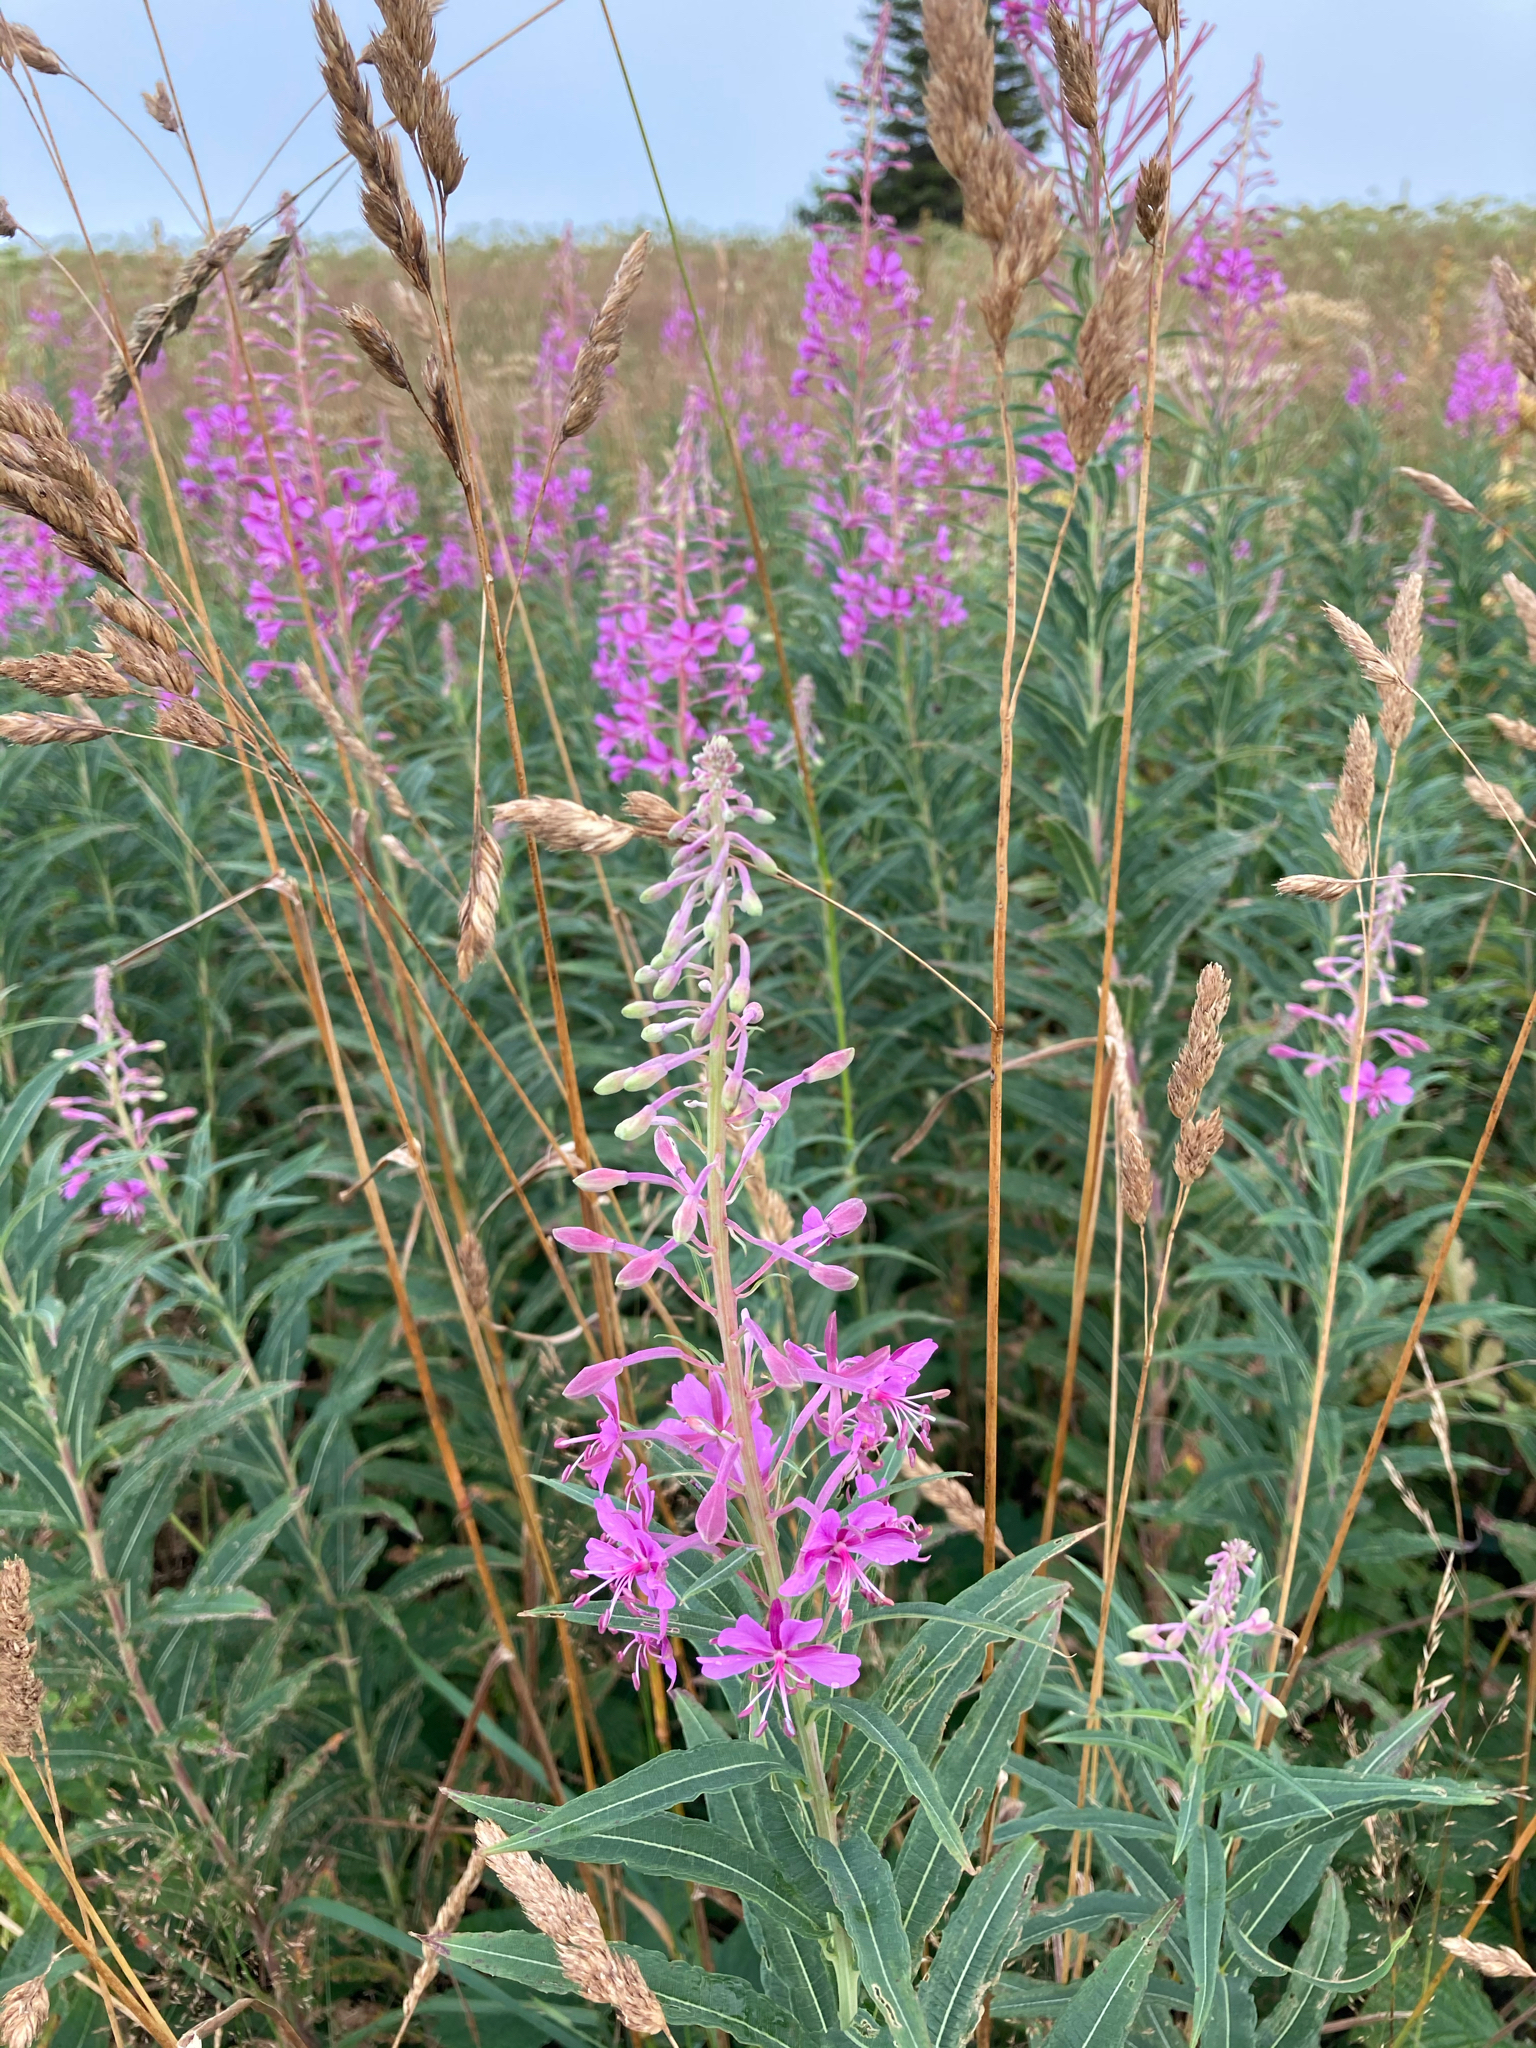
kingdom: Plantae
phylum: Tracheophyta
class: Magnoliopsida
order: Myrtales
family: Onagraceae
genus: Chamaenerion
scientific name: Chamaenerion angustifolium
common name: Fireweed
